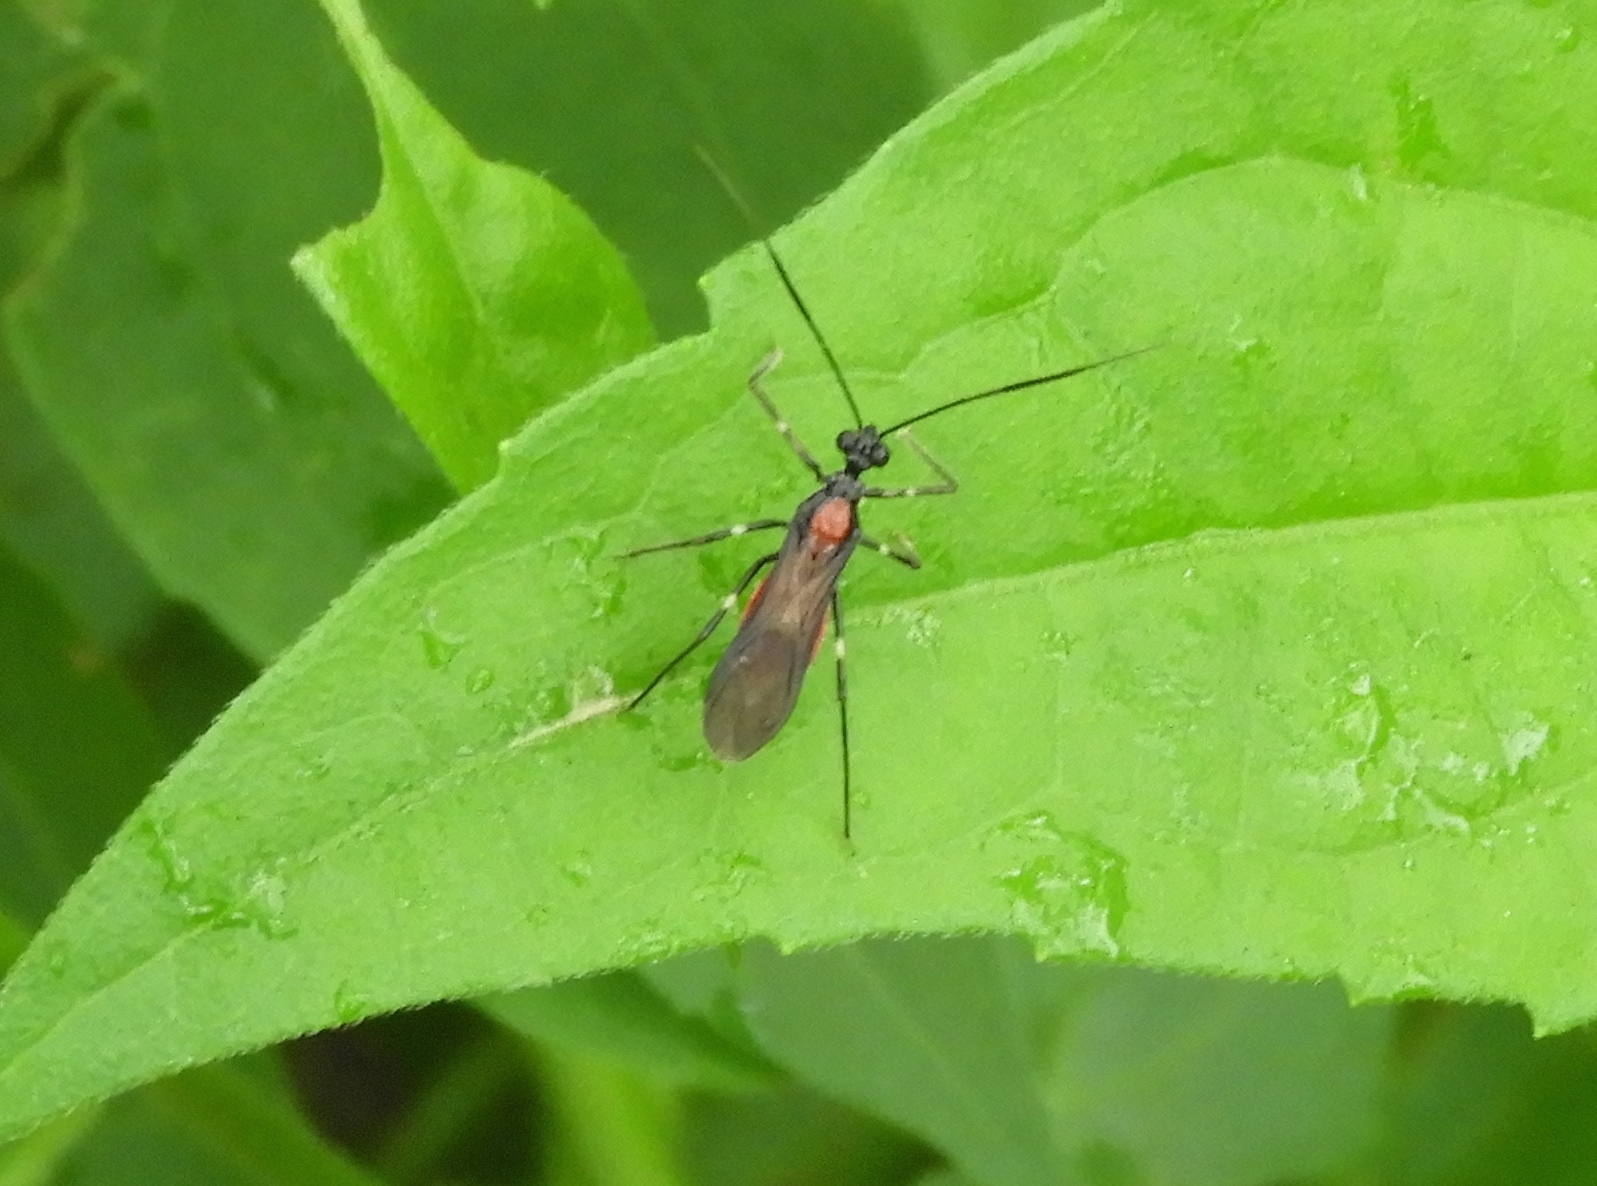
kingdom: Animalia
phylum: Arthropoda
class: Insecta
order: Hemiptera
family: Reduviidae
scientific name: Reduviidae
